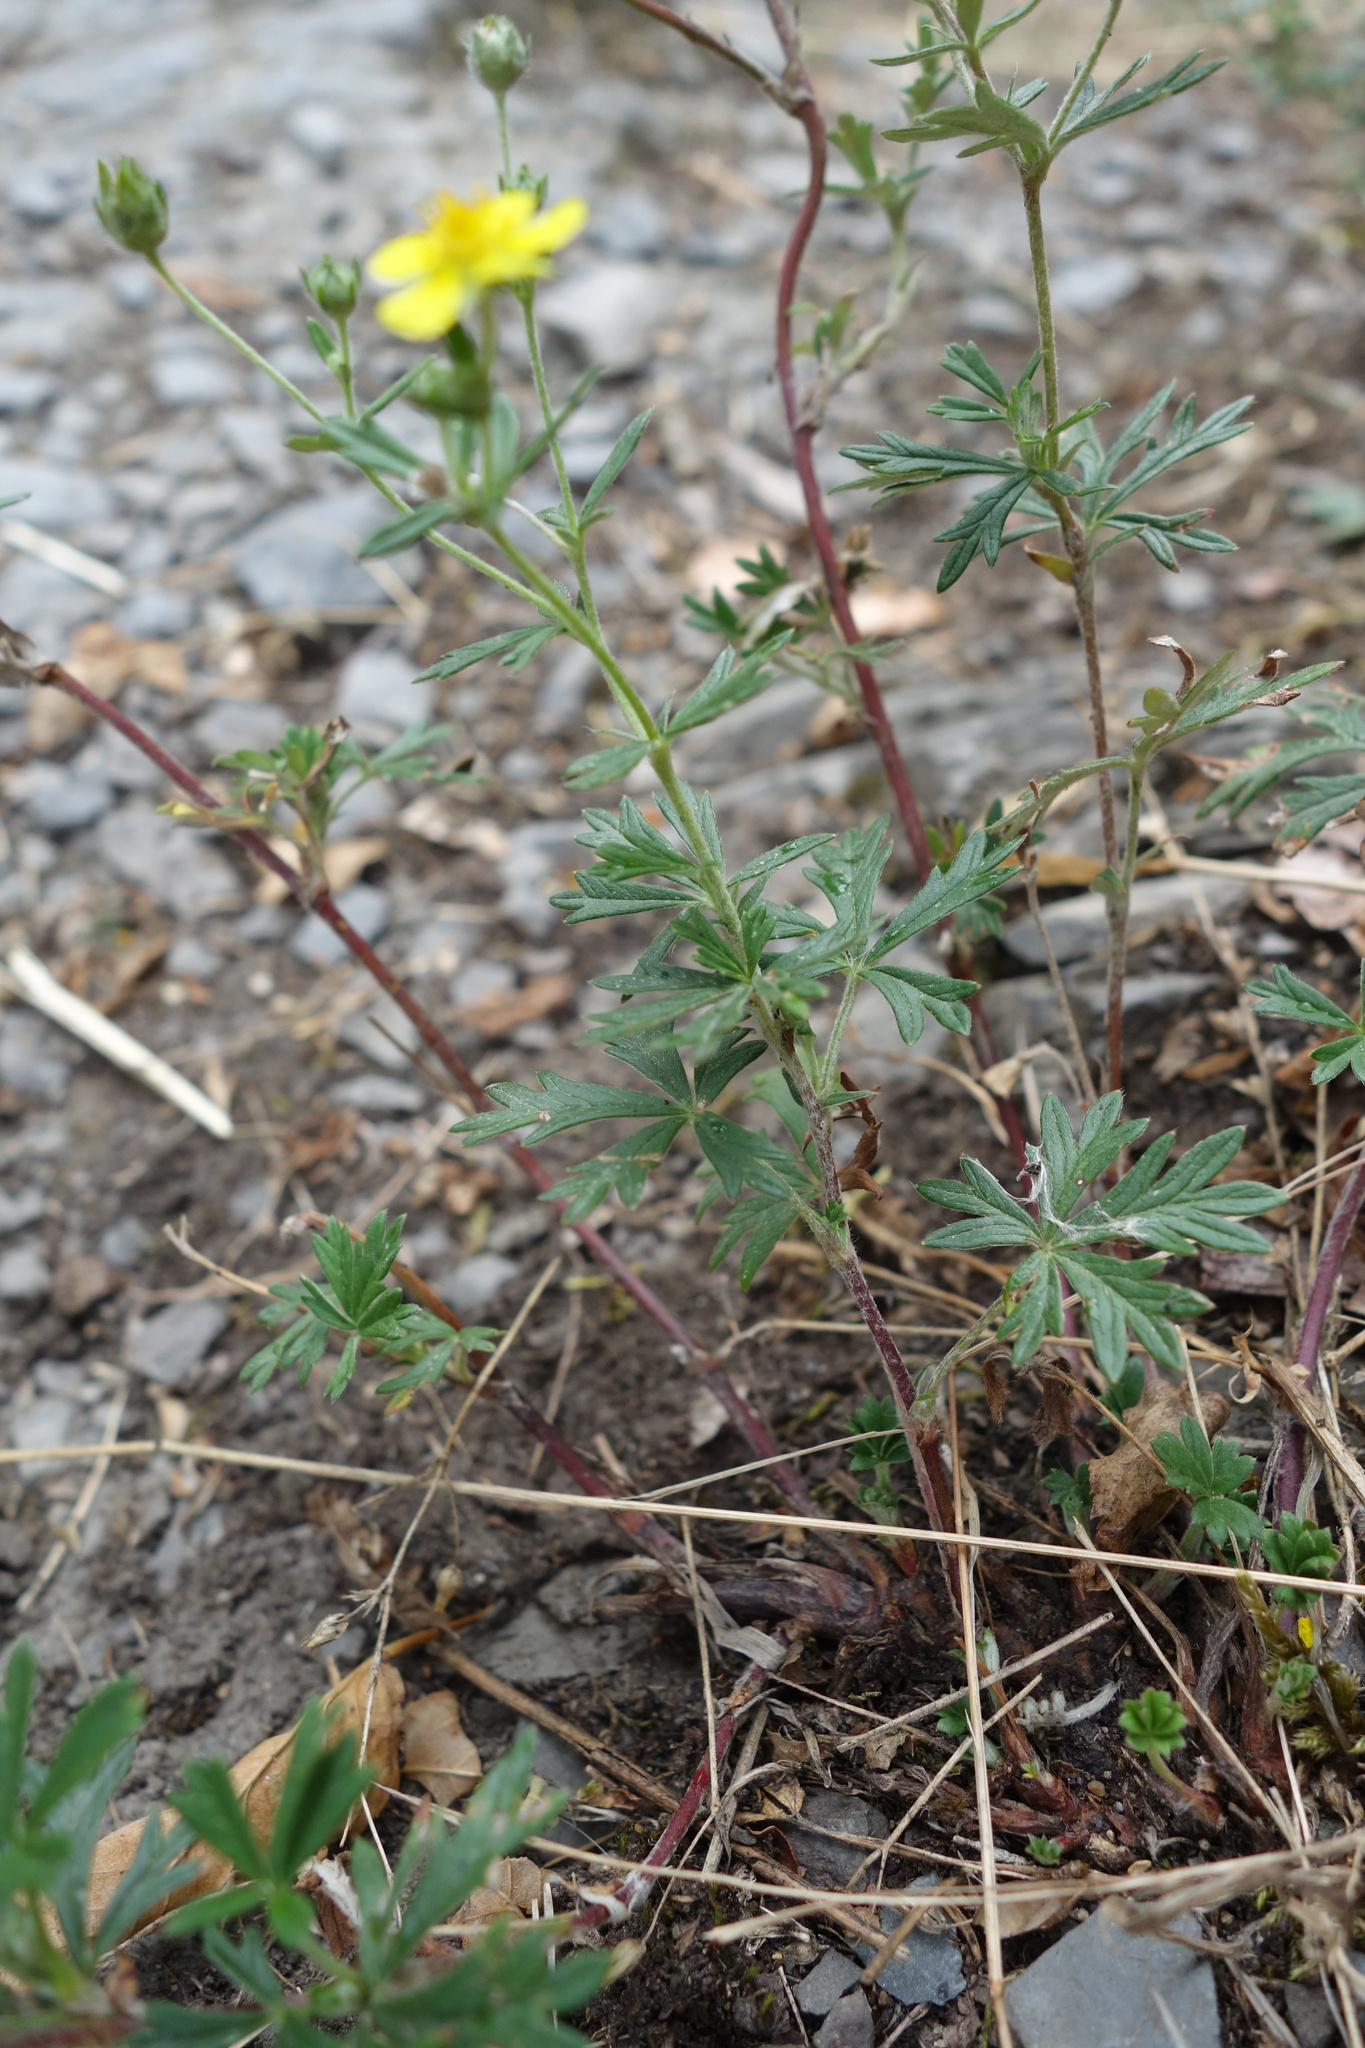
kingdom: Plantae
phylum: Tracheophyta
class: Magnoliopsida
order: Rosales
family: Rosaceae
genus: Potentilla
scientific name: Potentilla argentea
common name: Hoary cinquefoil
